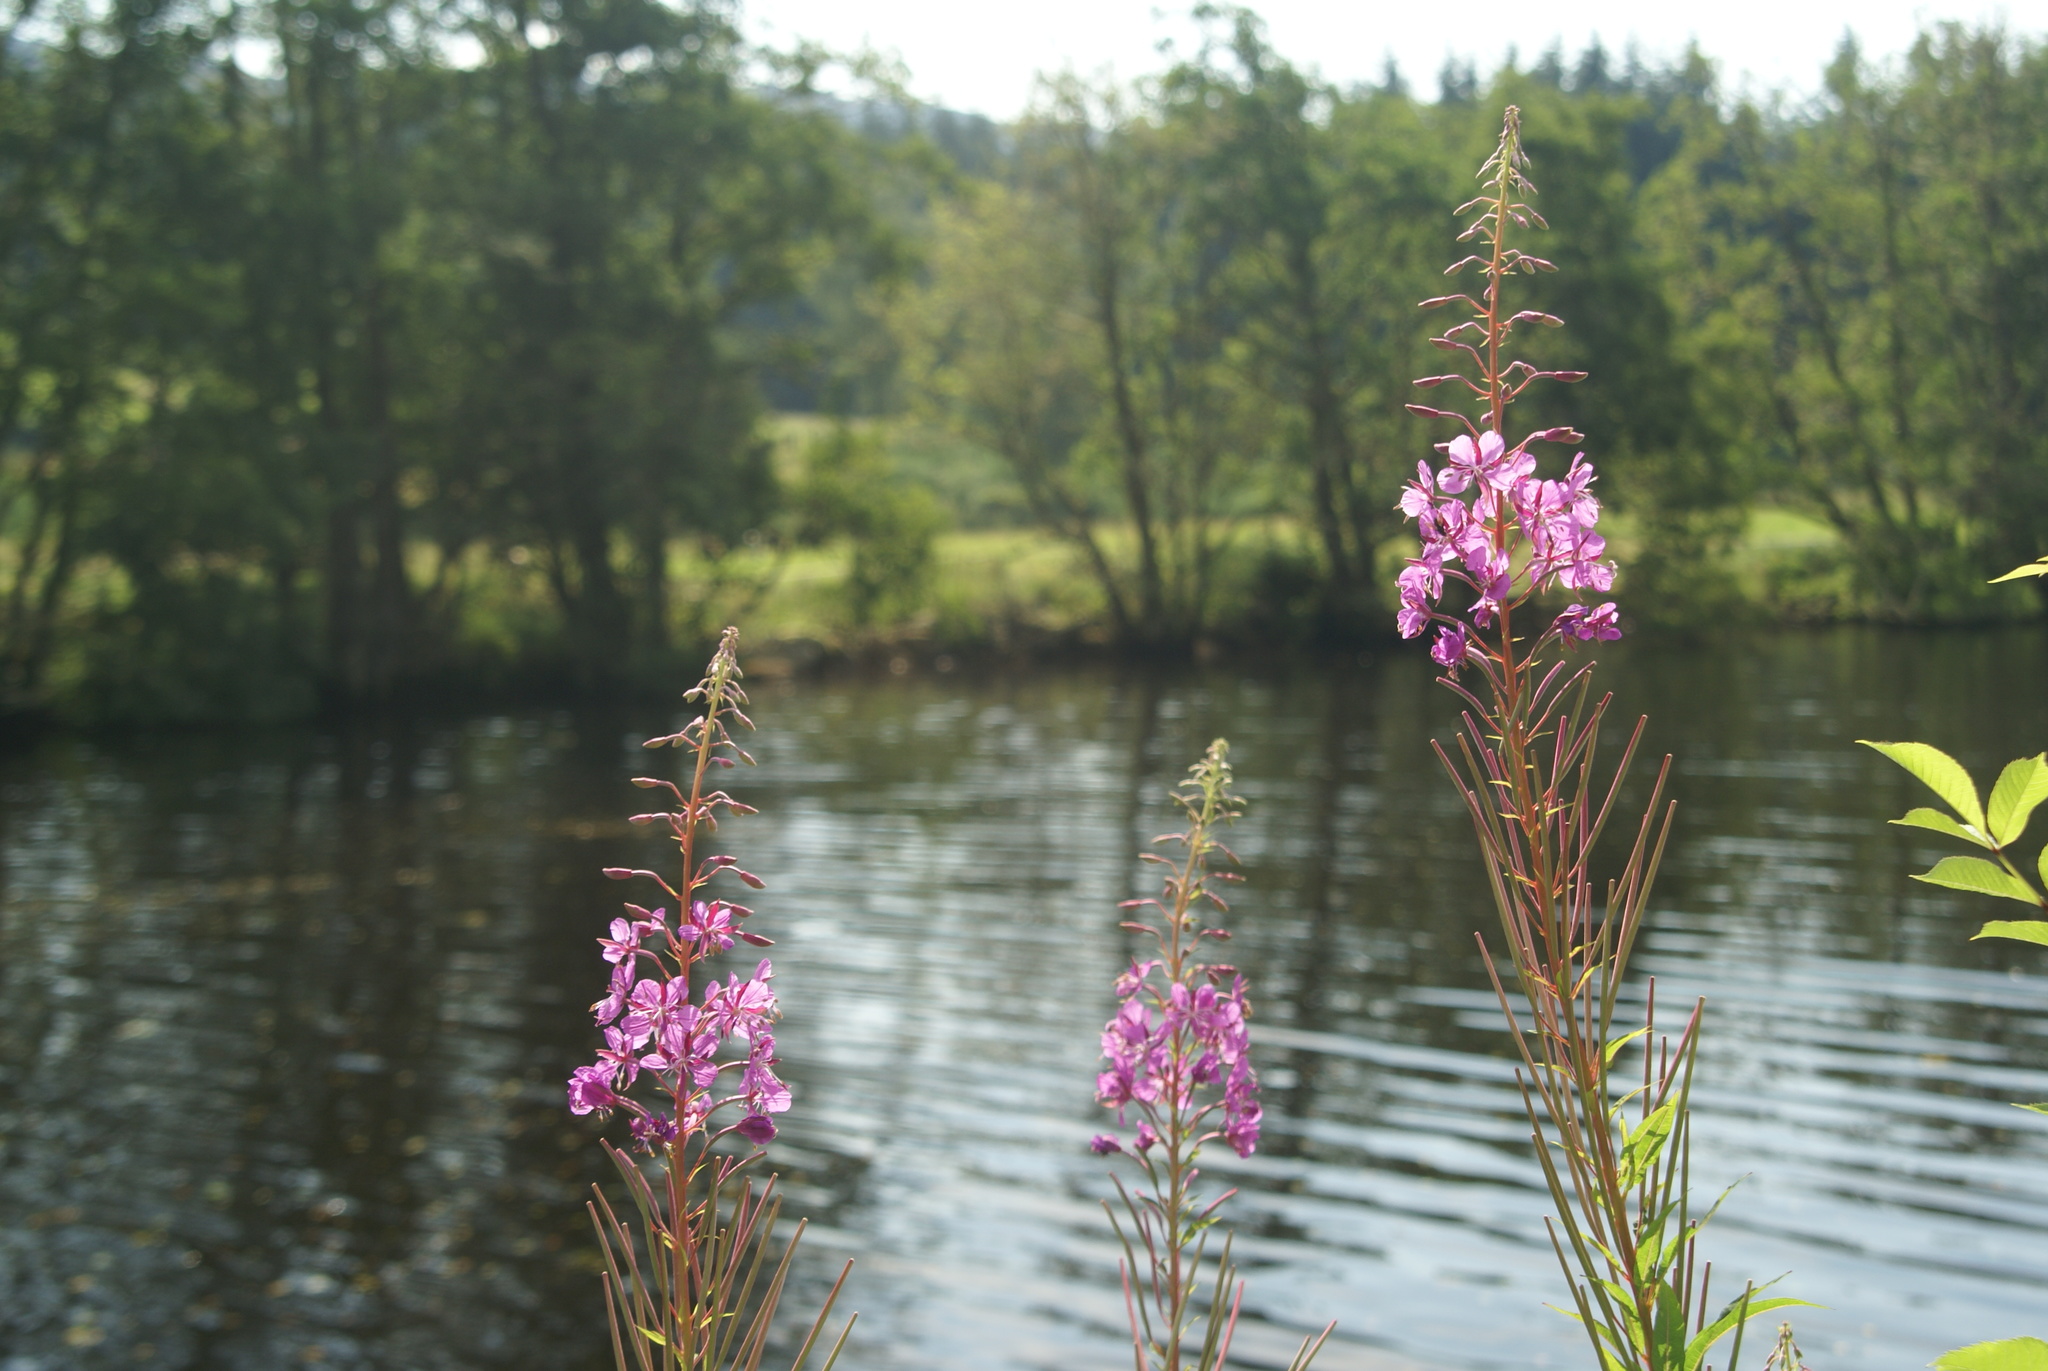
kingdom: Plantae
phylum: Tracheophyta
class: Magnoliopsida
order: Myrtales
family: Onagraceae
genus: Chamaenerion
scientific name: Chamaenerion angustifolium
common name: Fireweed
